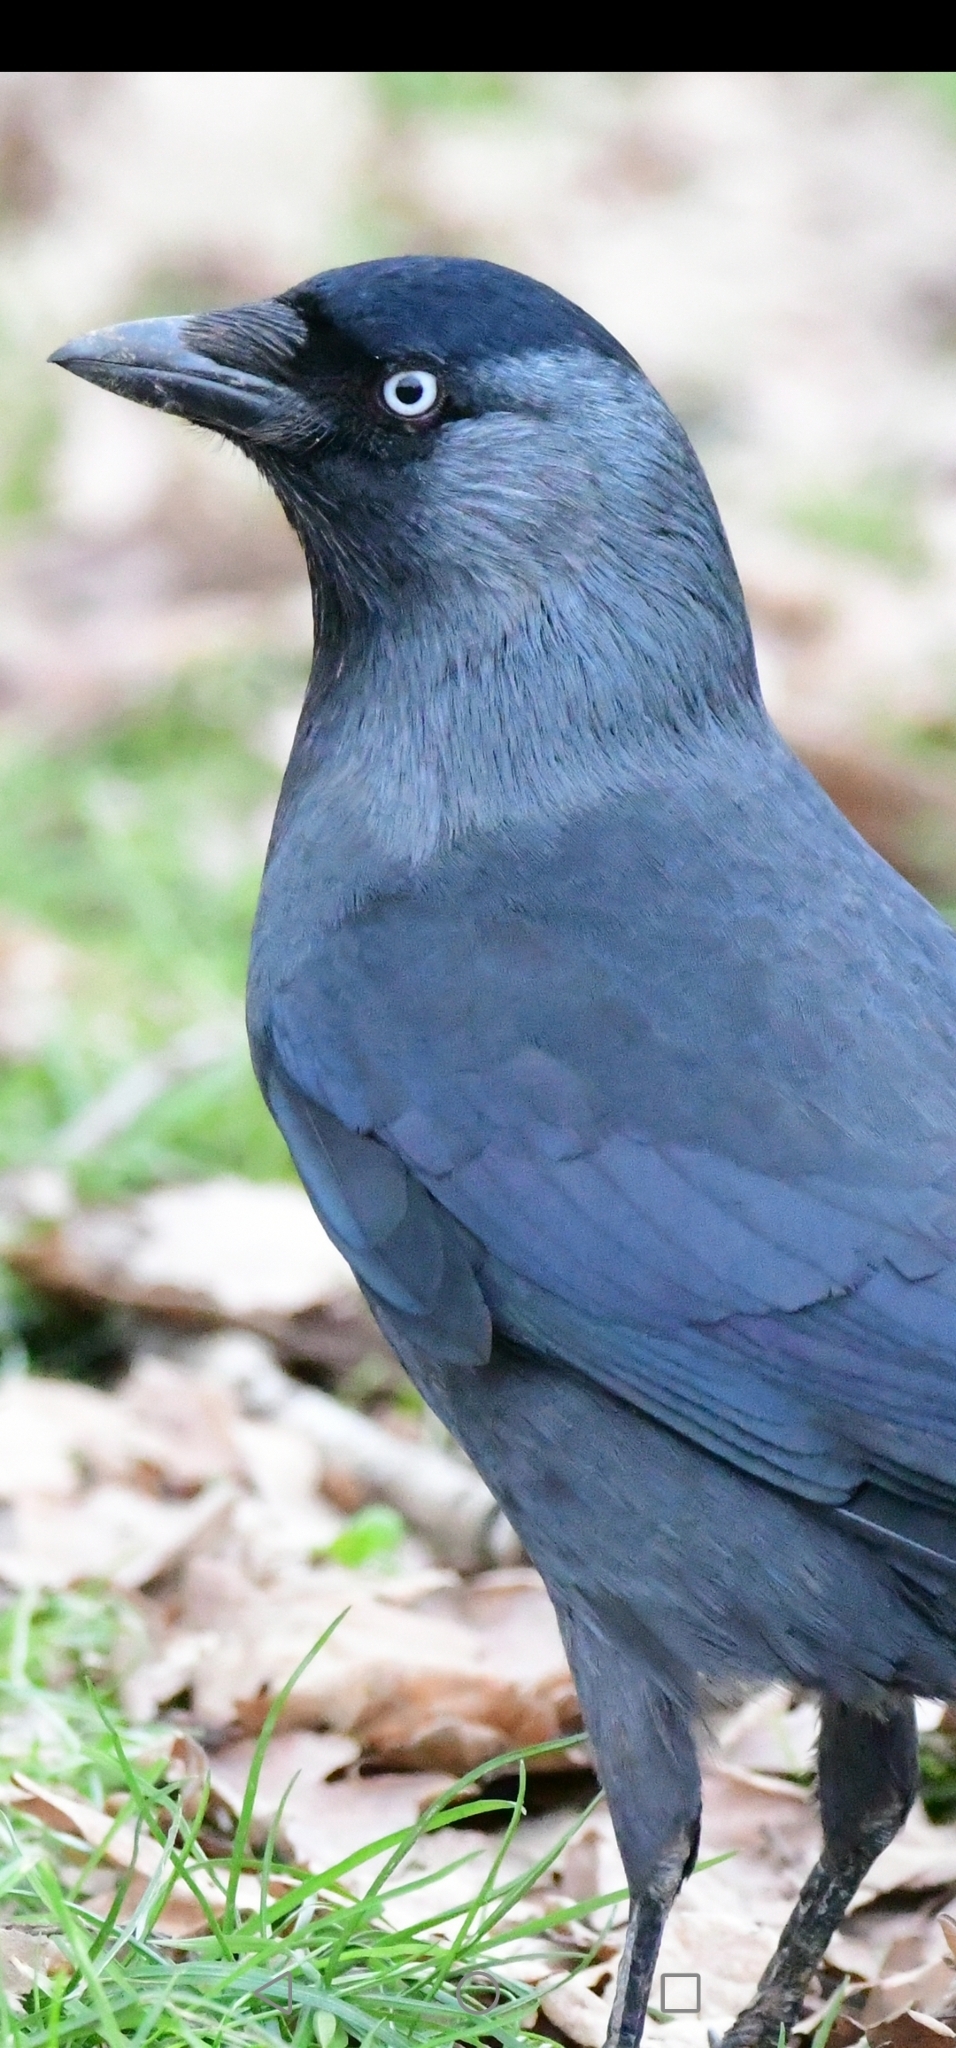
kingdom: Animalia
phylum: Chordata
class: Aves
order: Passeriformes
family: Corvidae
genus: Coloeus
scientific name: Coloeus monedula
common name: Western jackdaw
